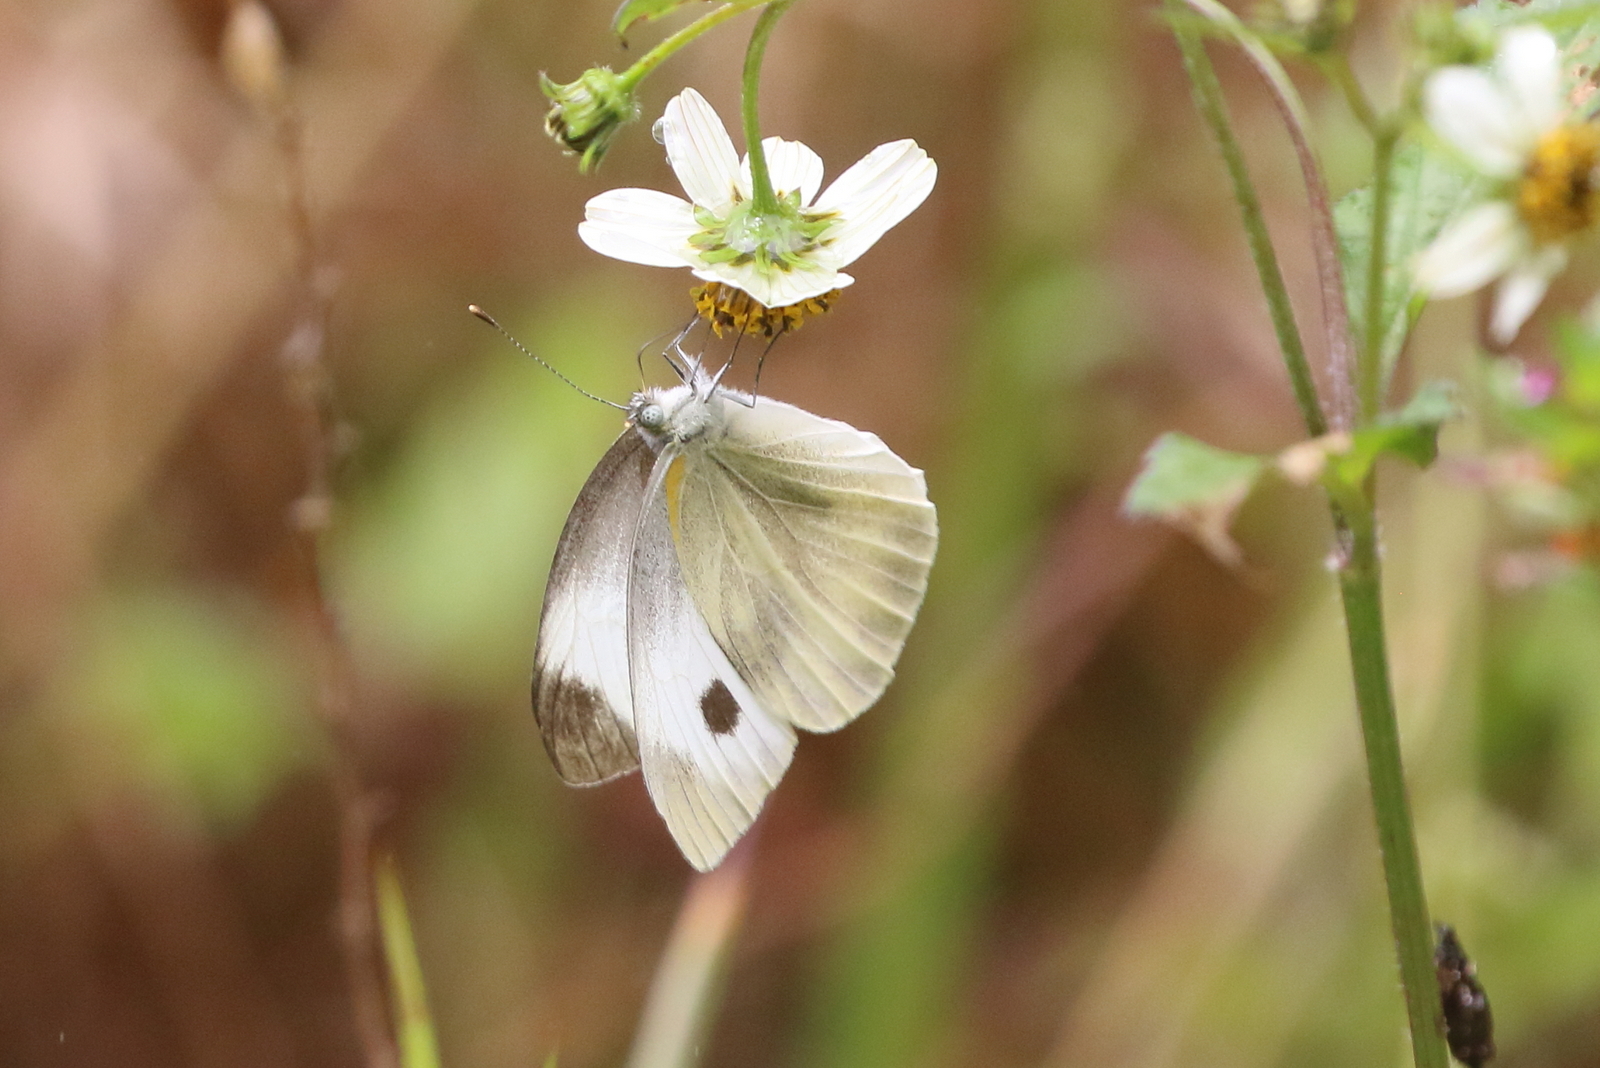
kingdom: Animalia
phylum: Arthropoda
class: Insecta
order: Lepidoptera
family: Pieridae
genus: Pieris
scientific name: Pieris canidia
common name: Indian cabbage white
